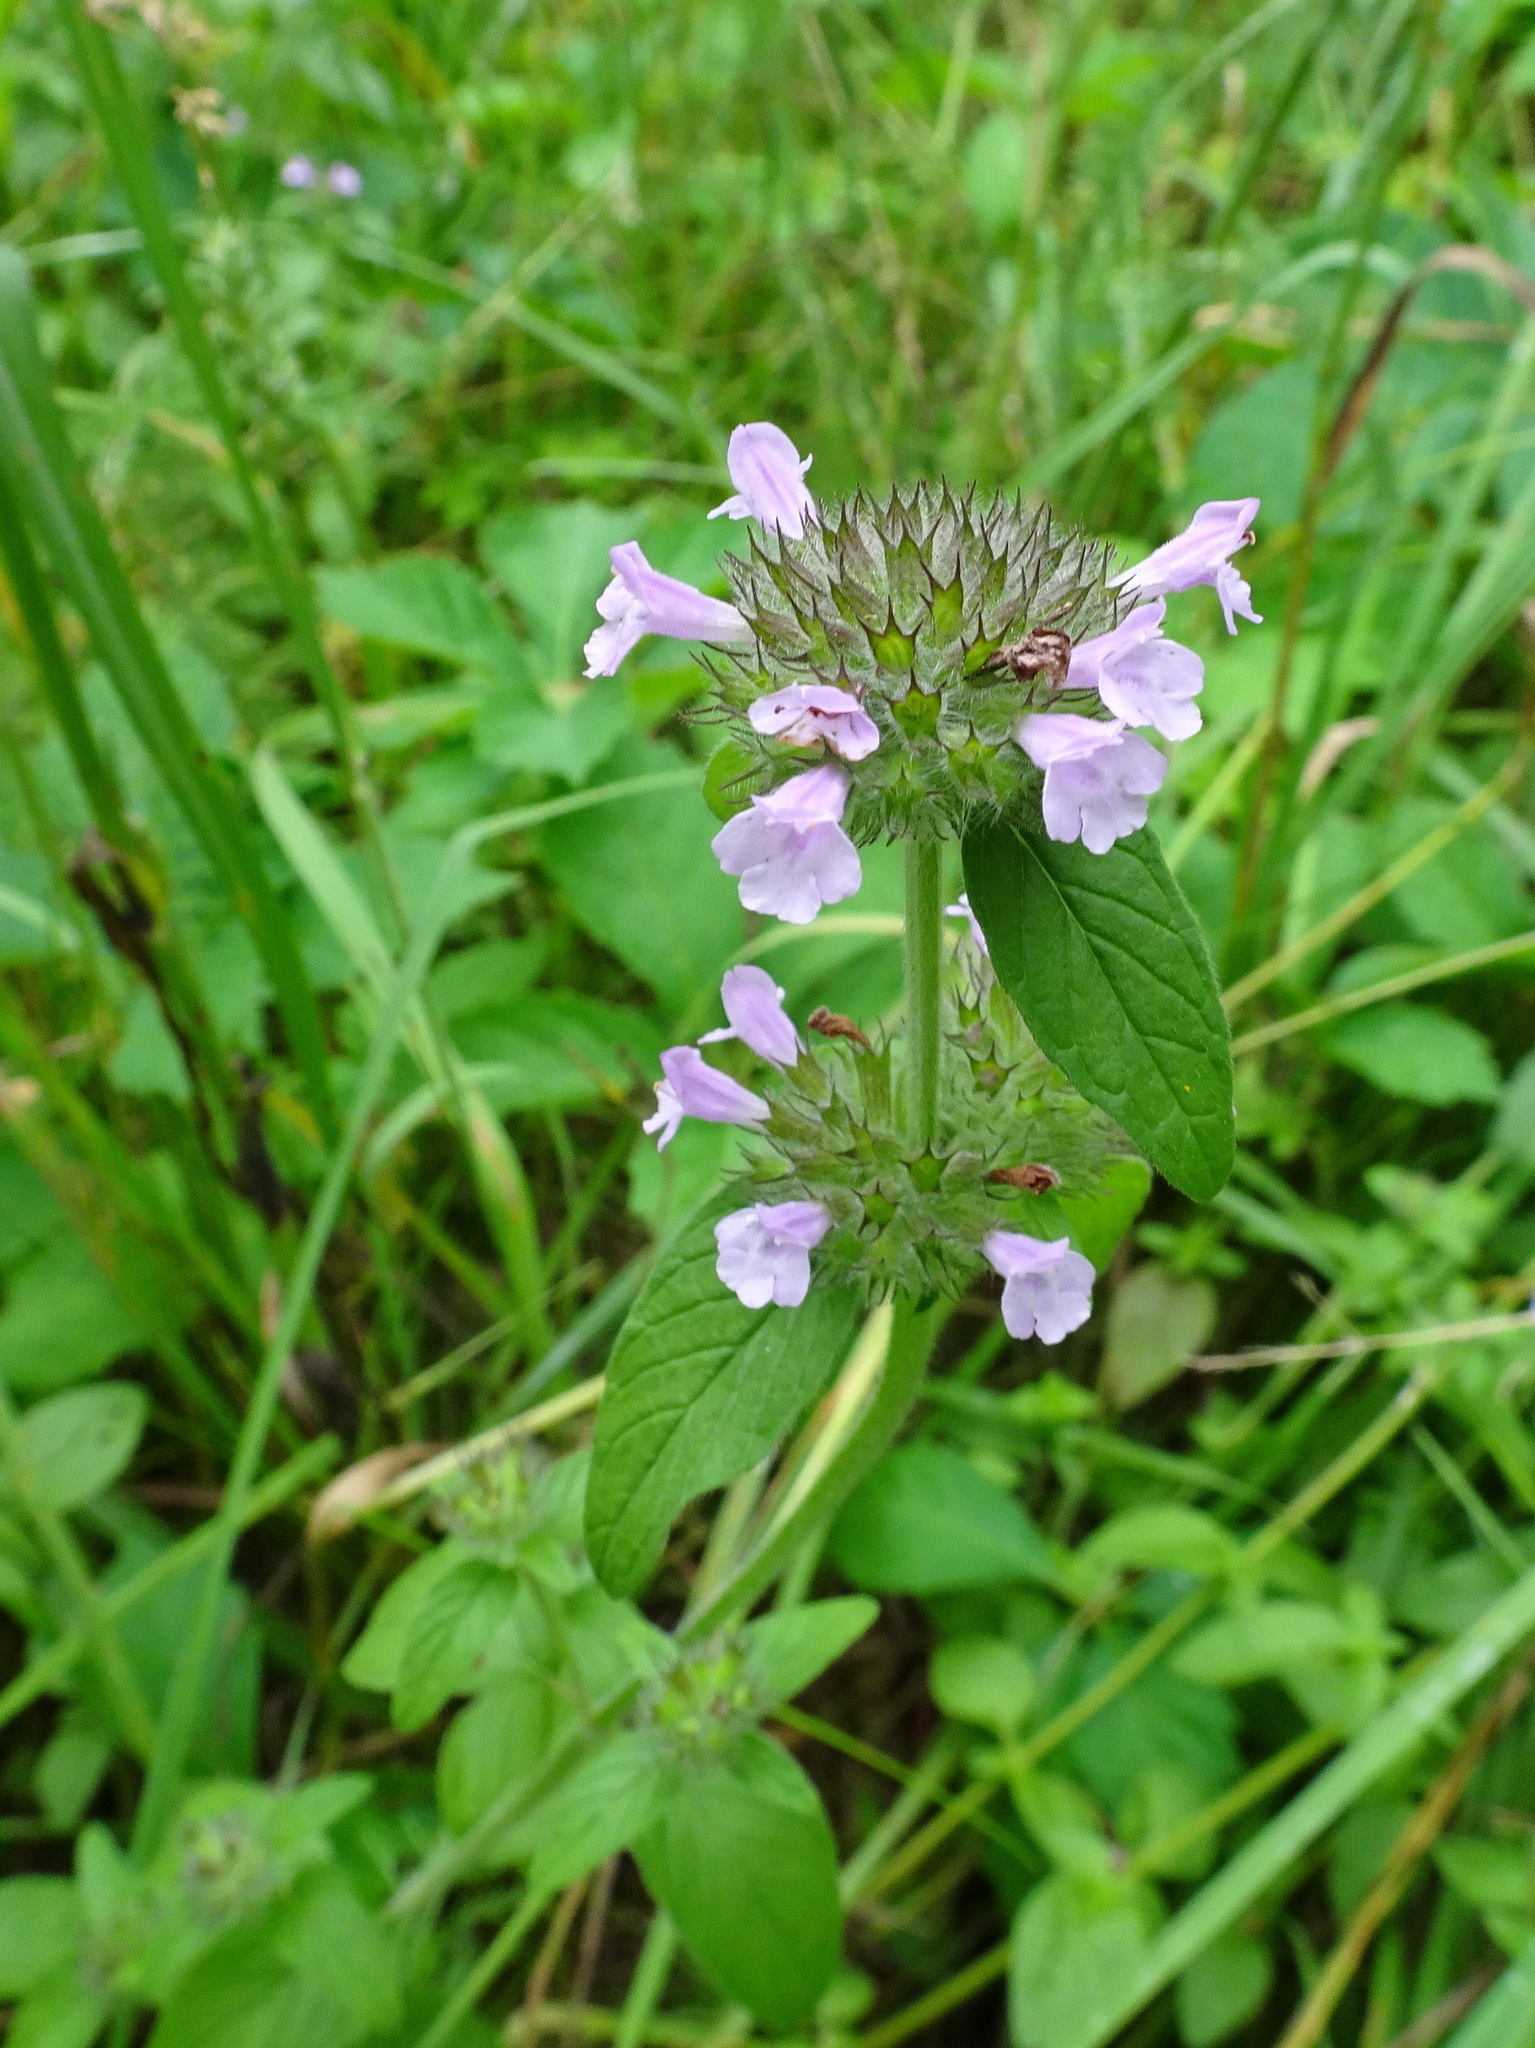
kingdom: Plantae
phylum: Tracheophyta
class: Magnoliopsida
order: Lamiales
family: Lamiaceae
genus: Clinopodium
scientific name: Clinopodium vulgare
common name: Wild basil
